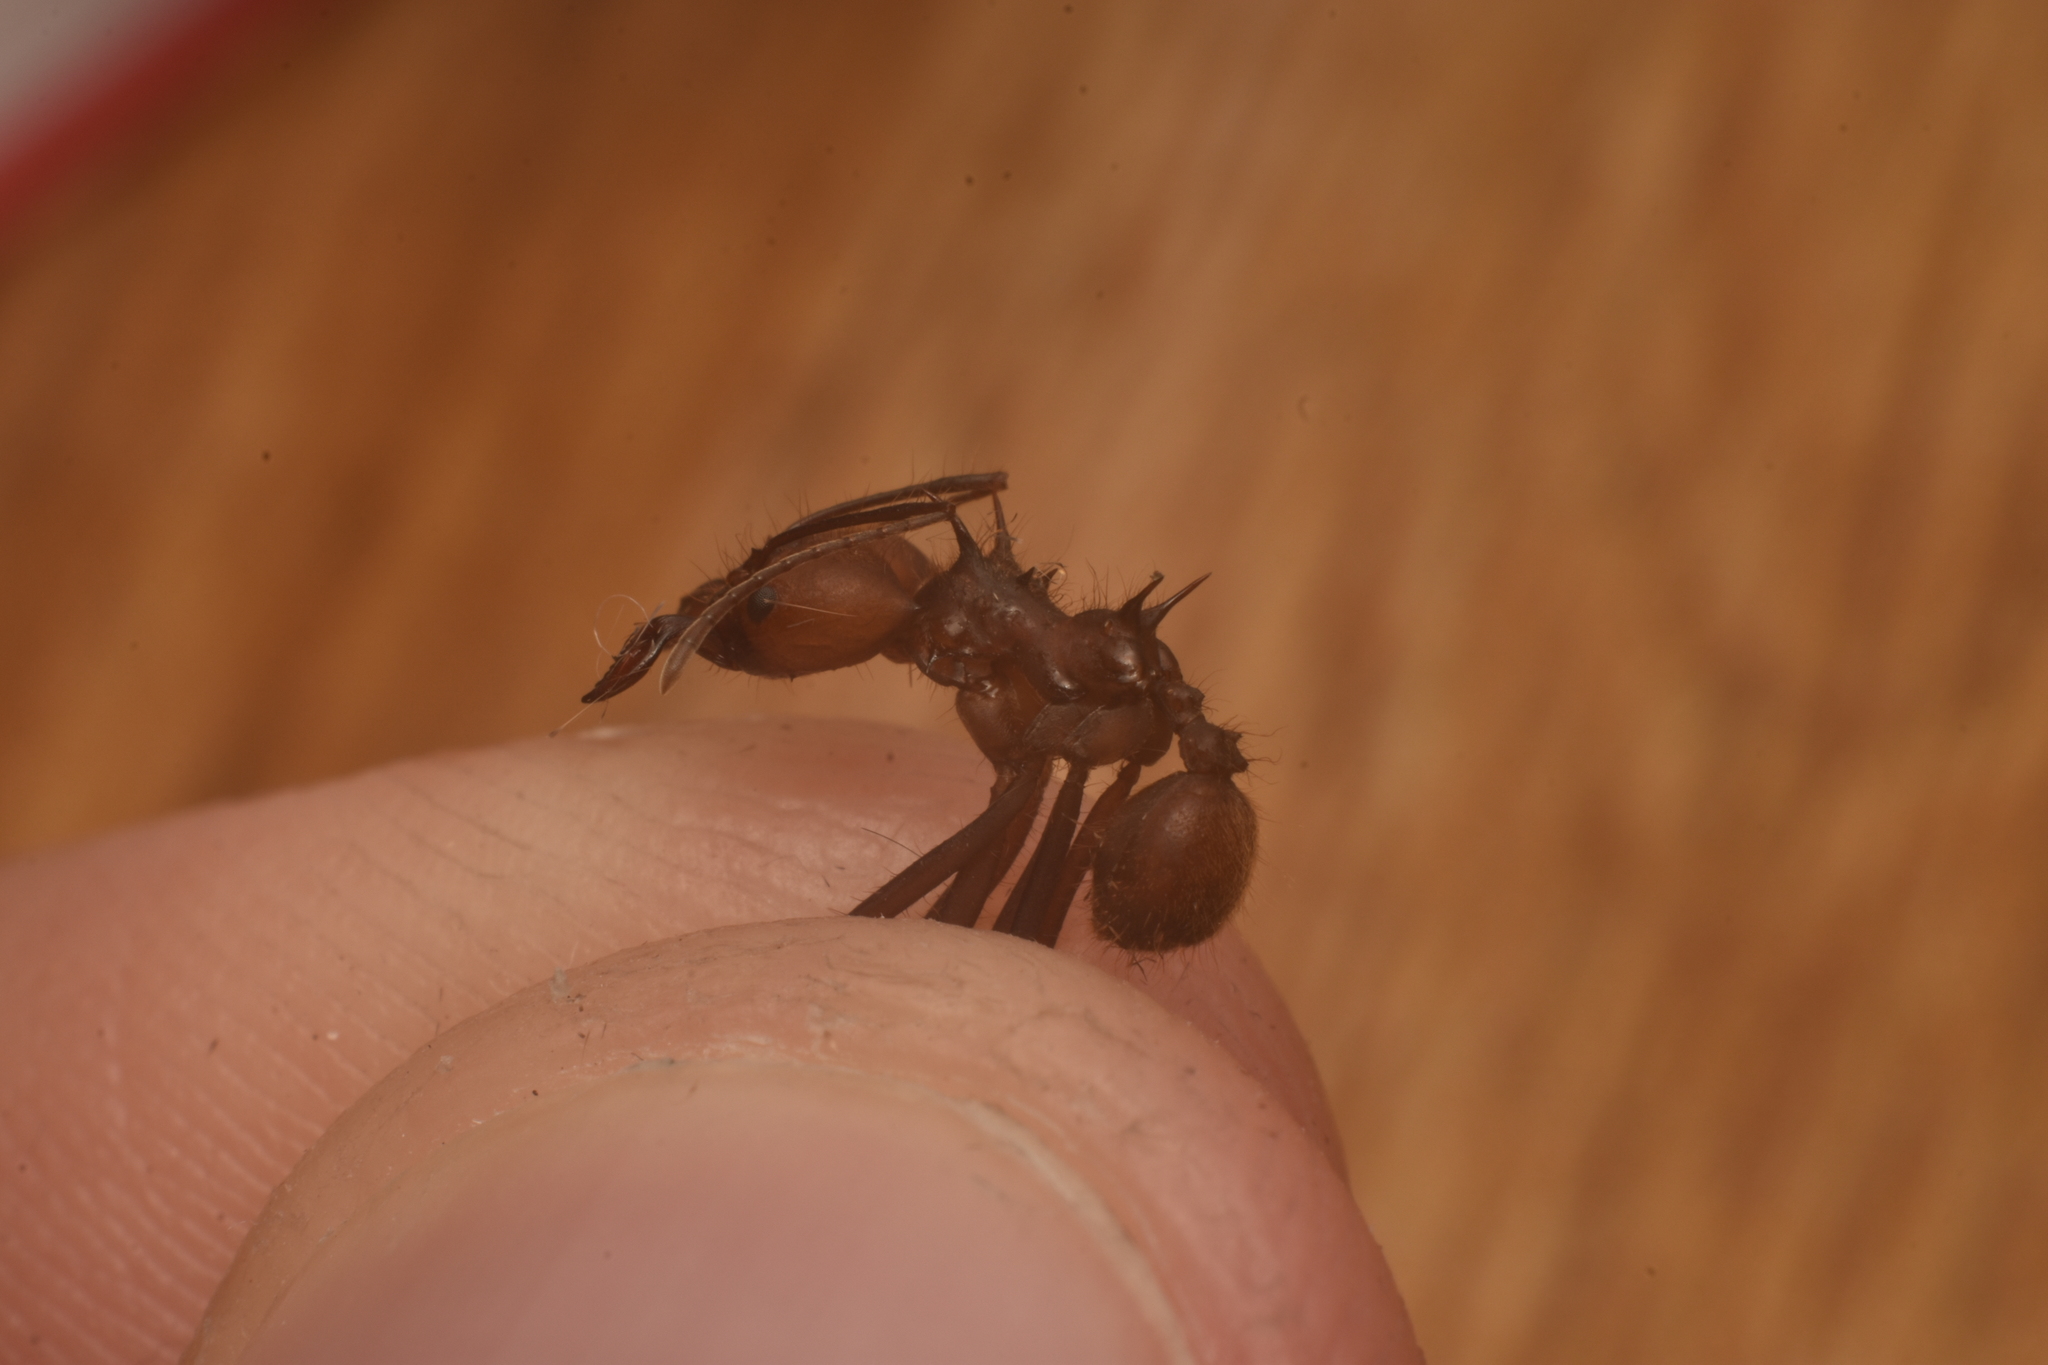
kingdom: Animalia
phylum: Arthropoda
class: Insecta
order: Hymenoptera
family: Formicidae
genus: Atta
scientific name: Atta cephalotes
